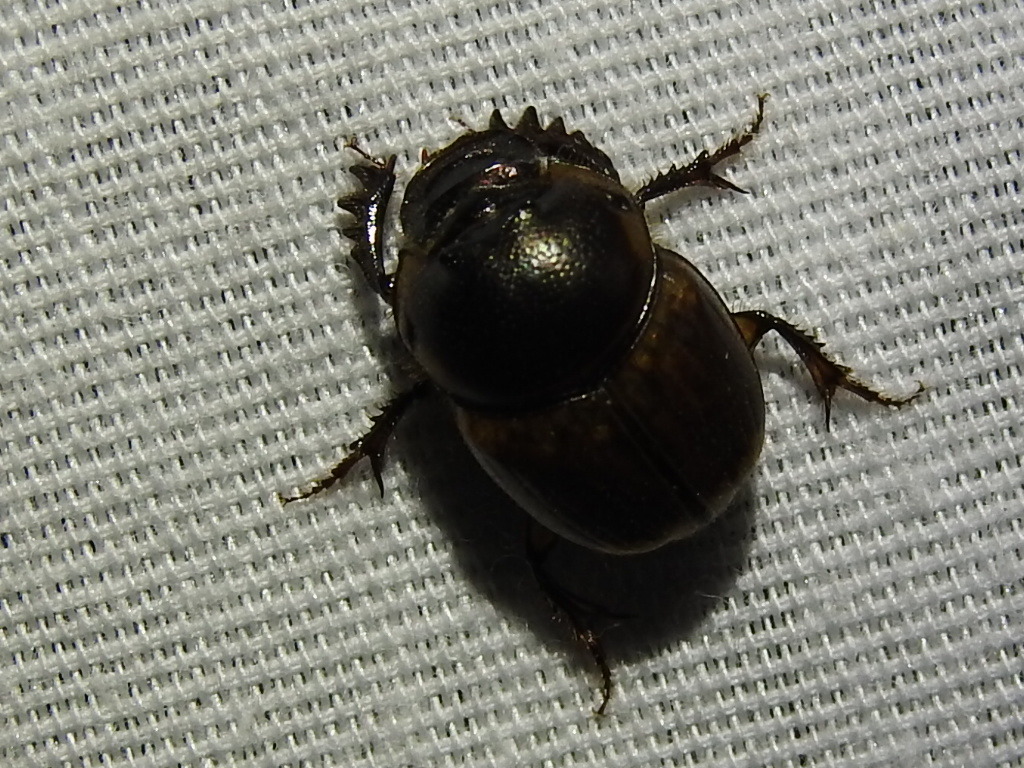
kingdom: Animalia
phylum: Arthropoda
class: Insecta
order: Coleoptera
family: Scarabaeidae
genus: Digitonthophagus
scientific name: Digitonthophagus gazella
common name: Brown dung beetle
